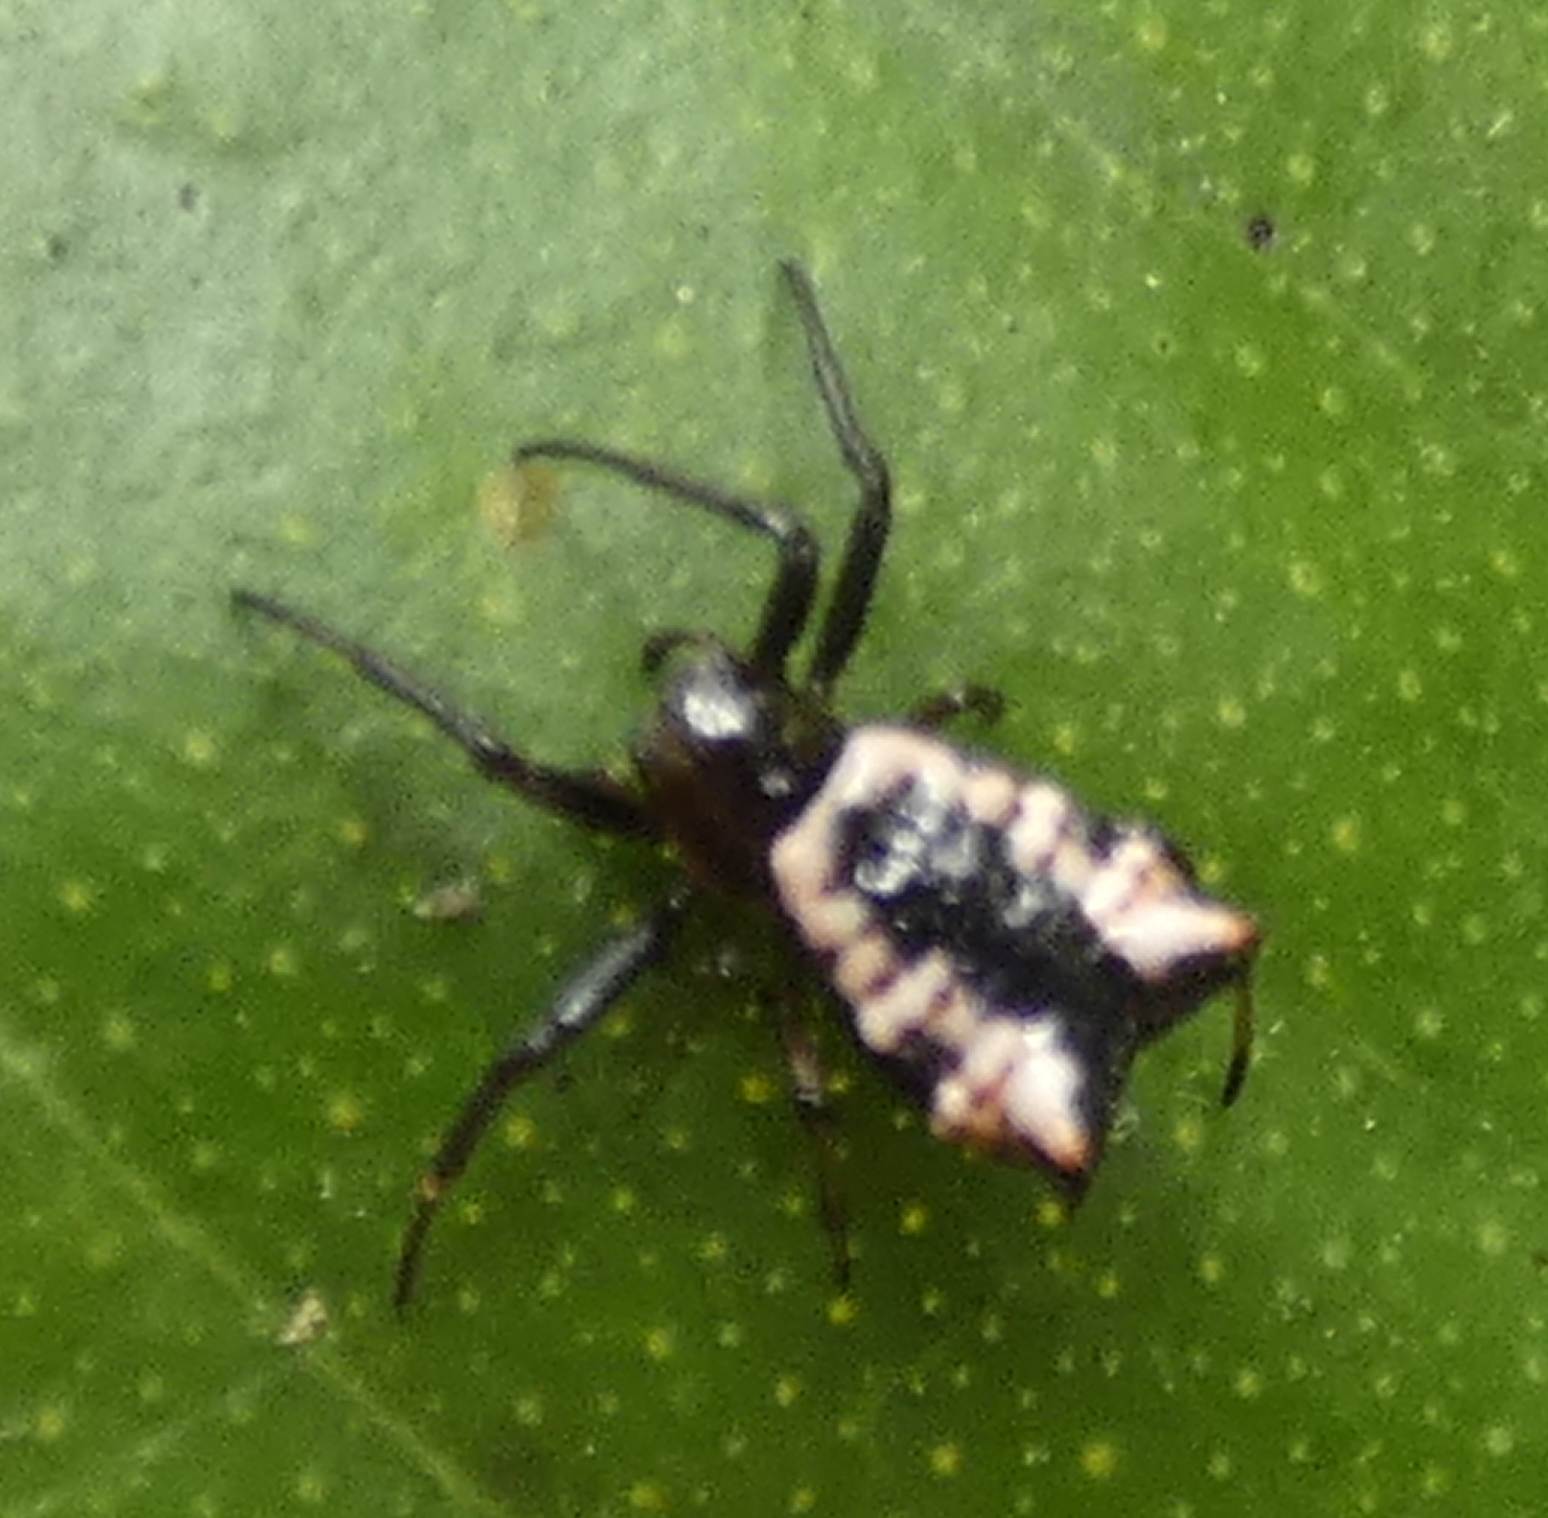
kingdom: Animalia
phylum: Arthropoda
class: Arachnida
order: Araneae
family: Araneidae
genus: Micrathena
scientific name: Micrathena patruelis
